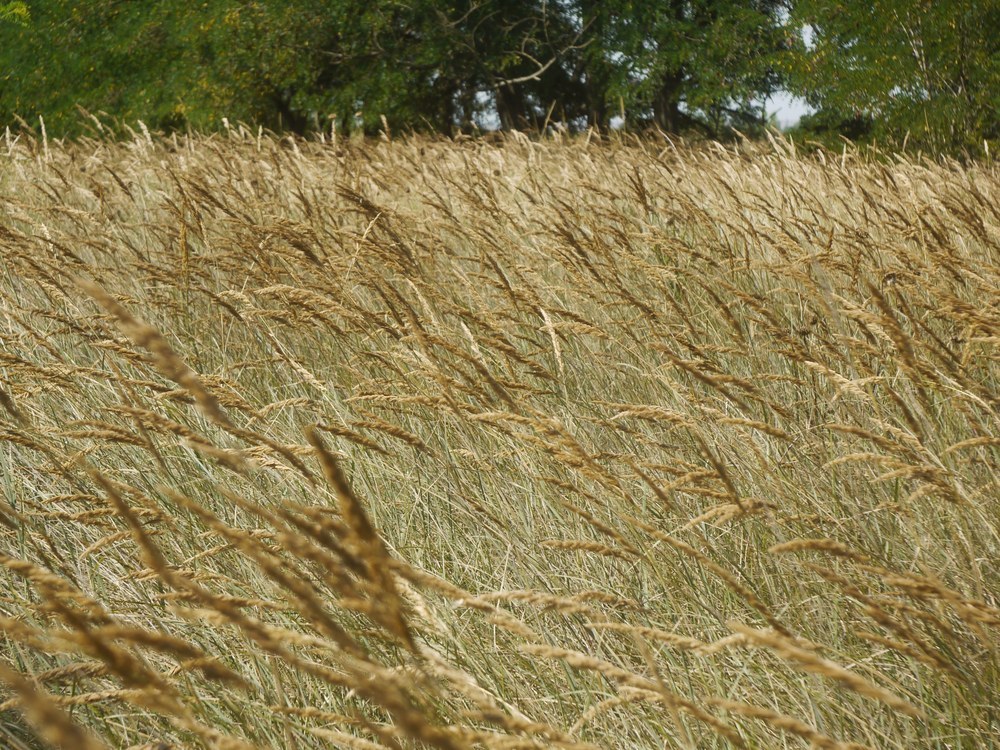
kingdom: Plantae
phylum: Tracheophyta
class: Liliopsida
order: Poales
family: Poaceae
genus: Calamagrostis
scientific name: Calamagrostis epigejos
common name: Wood small-reed
